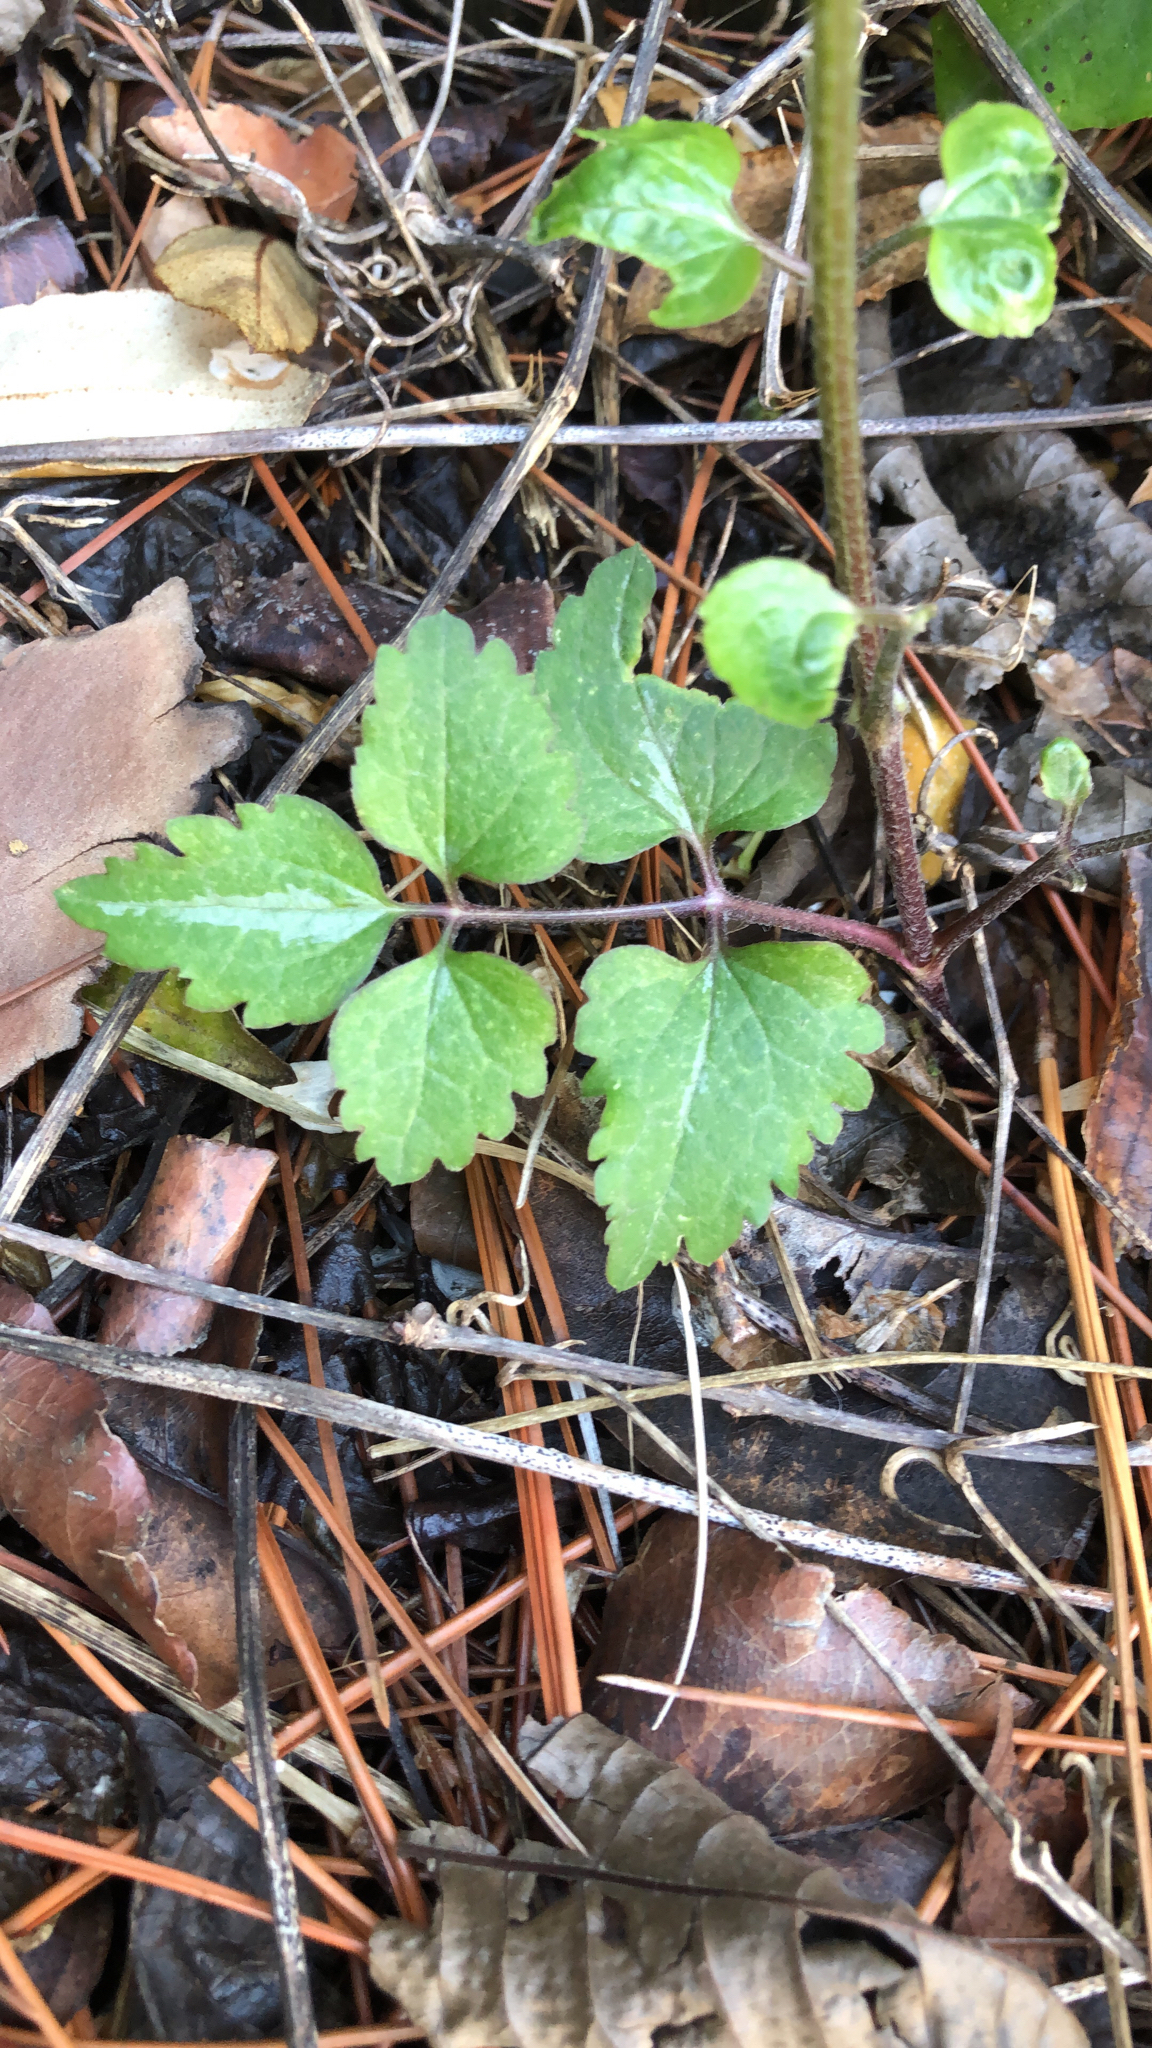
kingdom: Plantae
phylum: Tracheophyta
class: Magnoliopsida
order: Ranunculales
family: Ranunculaceae
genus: Clematis
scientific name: Clematis terniflora
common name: Sweet autumn clematis
